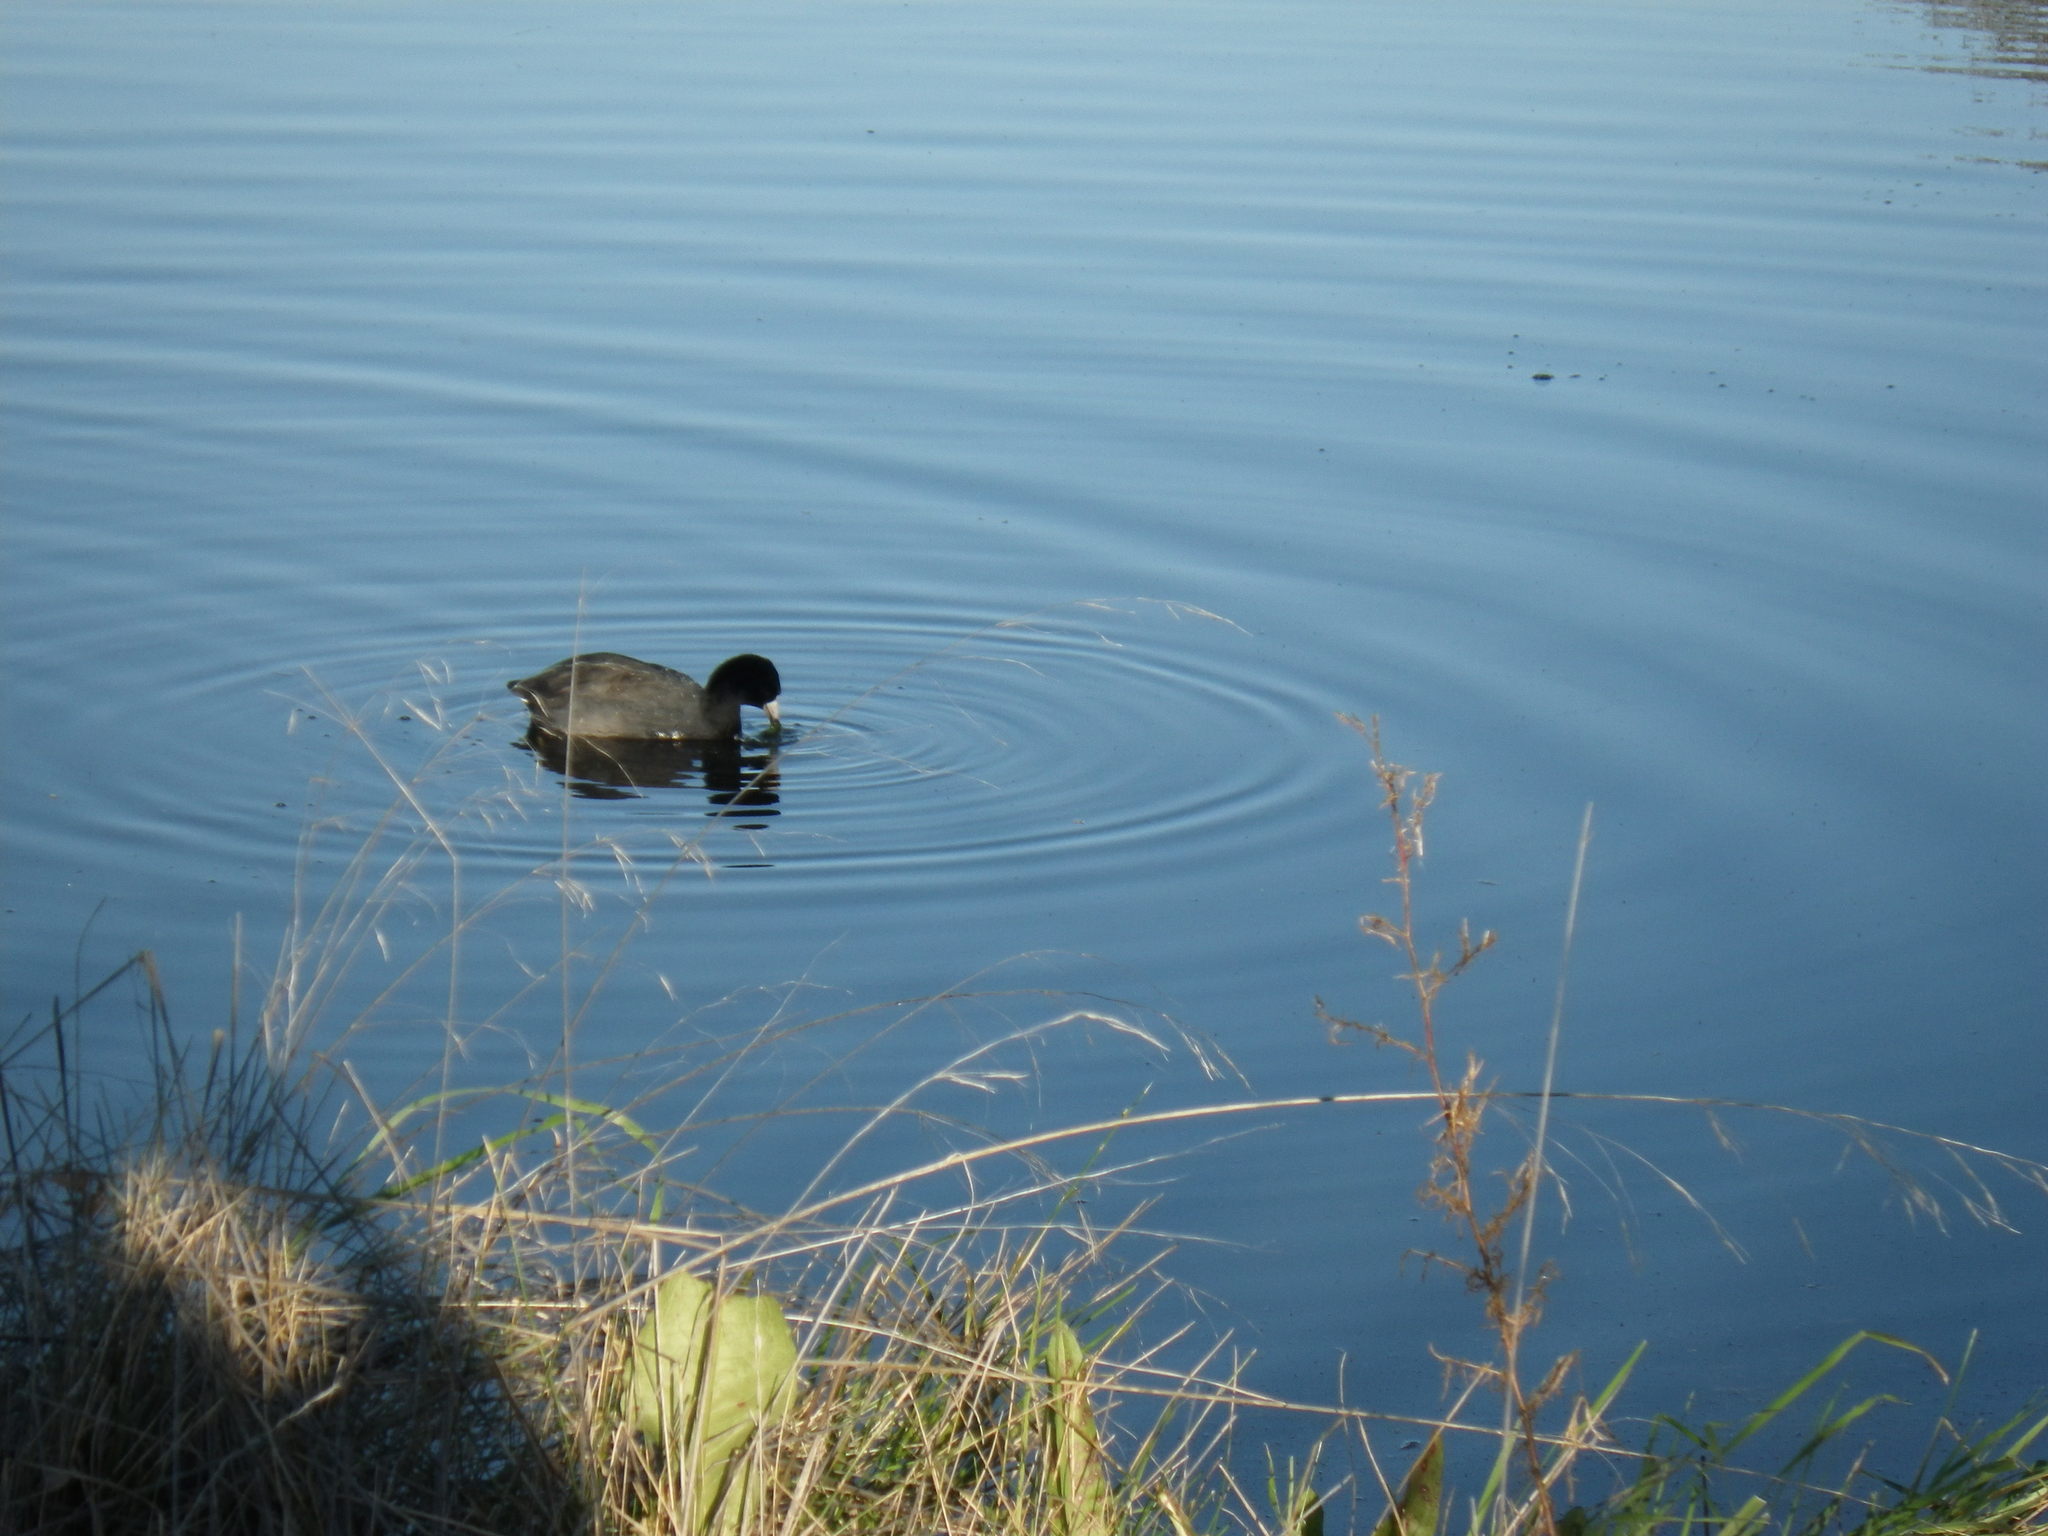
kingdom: Animalia
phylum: Chordata
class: Aves
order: Gruiformes
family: Rallidae
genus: Fulica
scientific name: Fulica americana
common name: American coot
